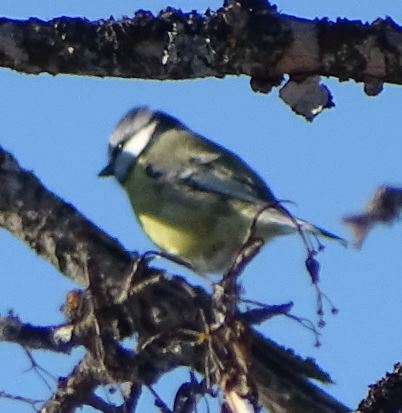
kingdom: Animalia
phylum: Chordata
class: Aves
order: Passeriformes
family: Paridae
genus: Cyanistes
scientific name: Cyanistes caeruleus
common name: Eurasian blue tit
